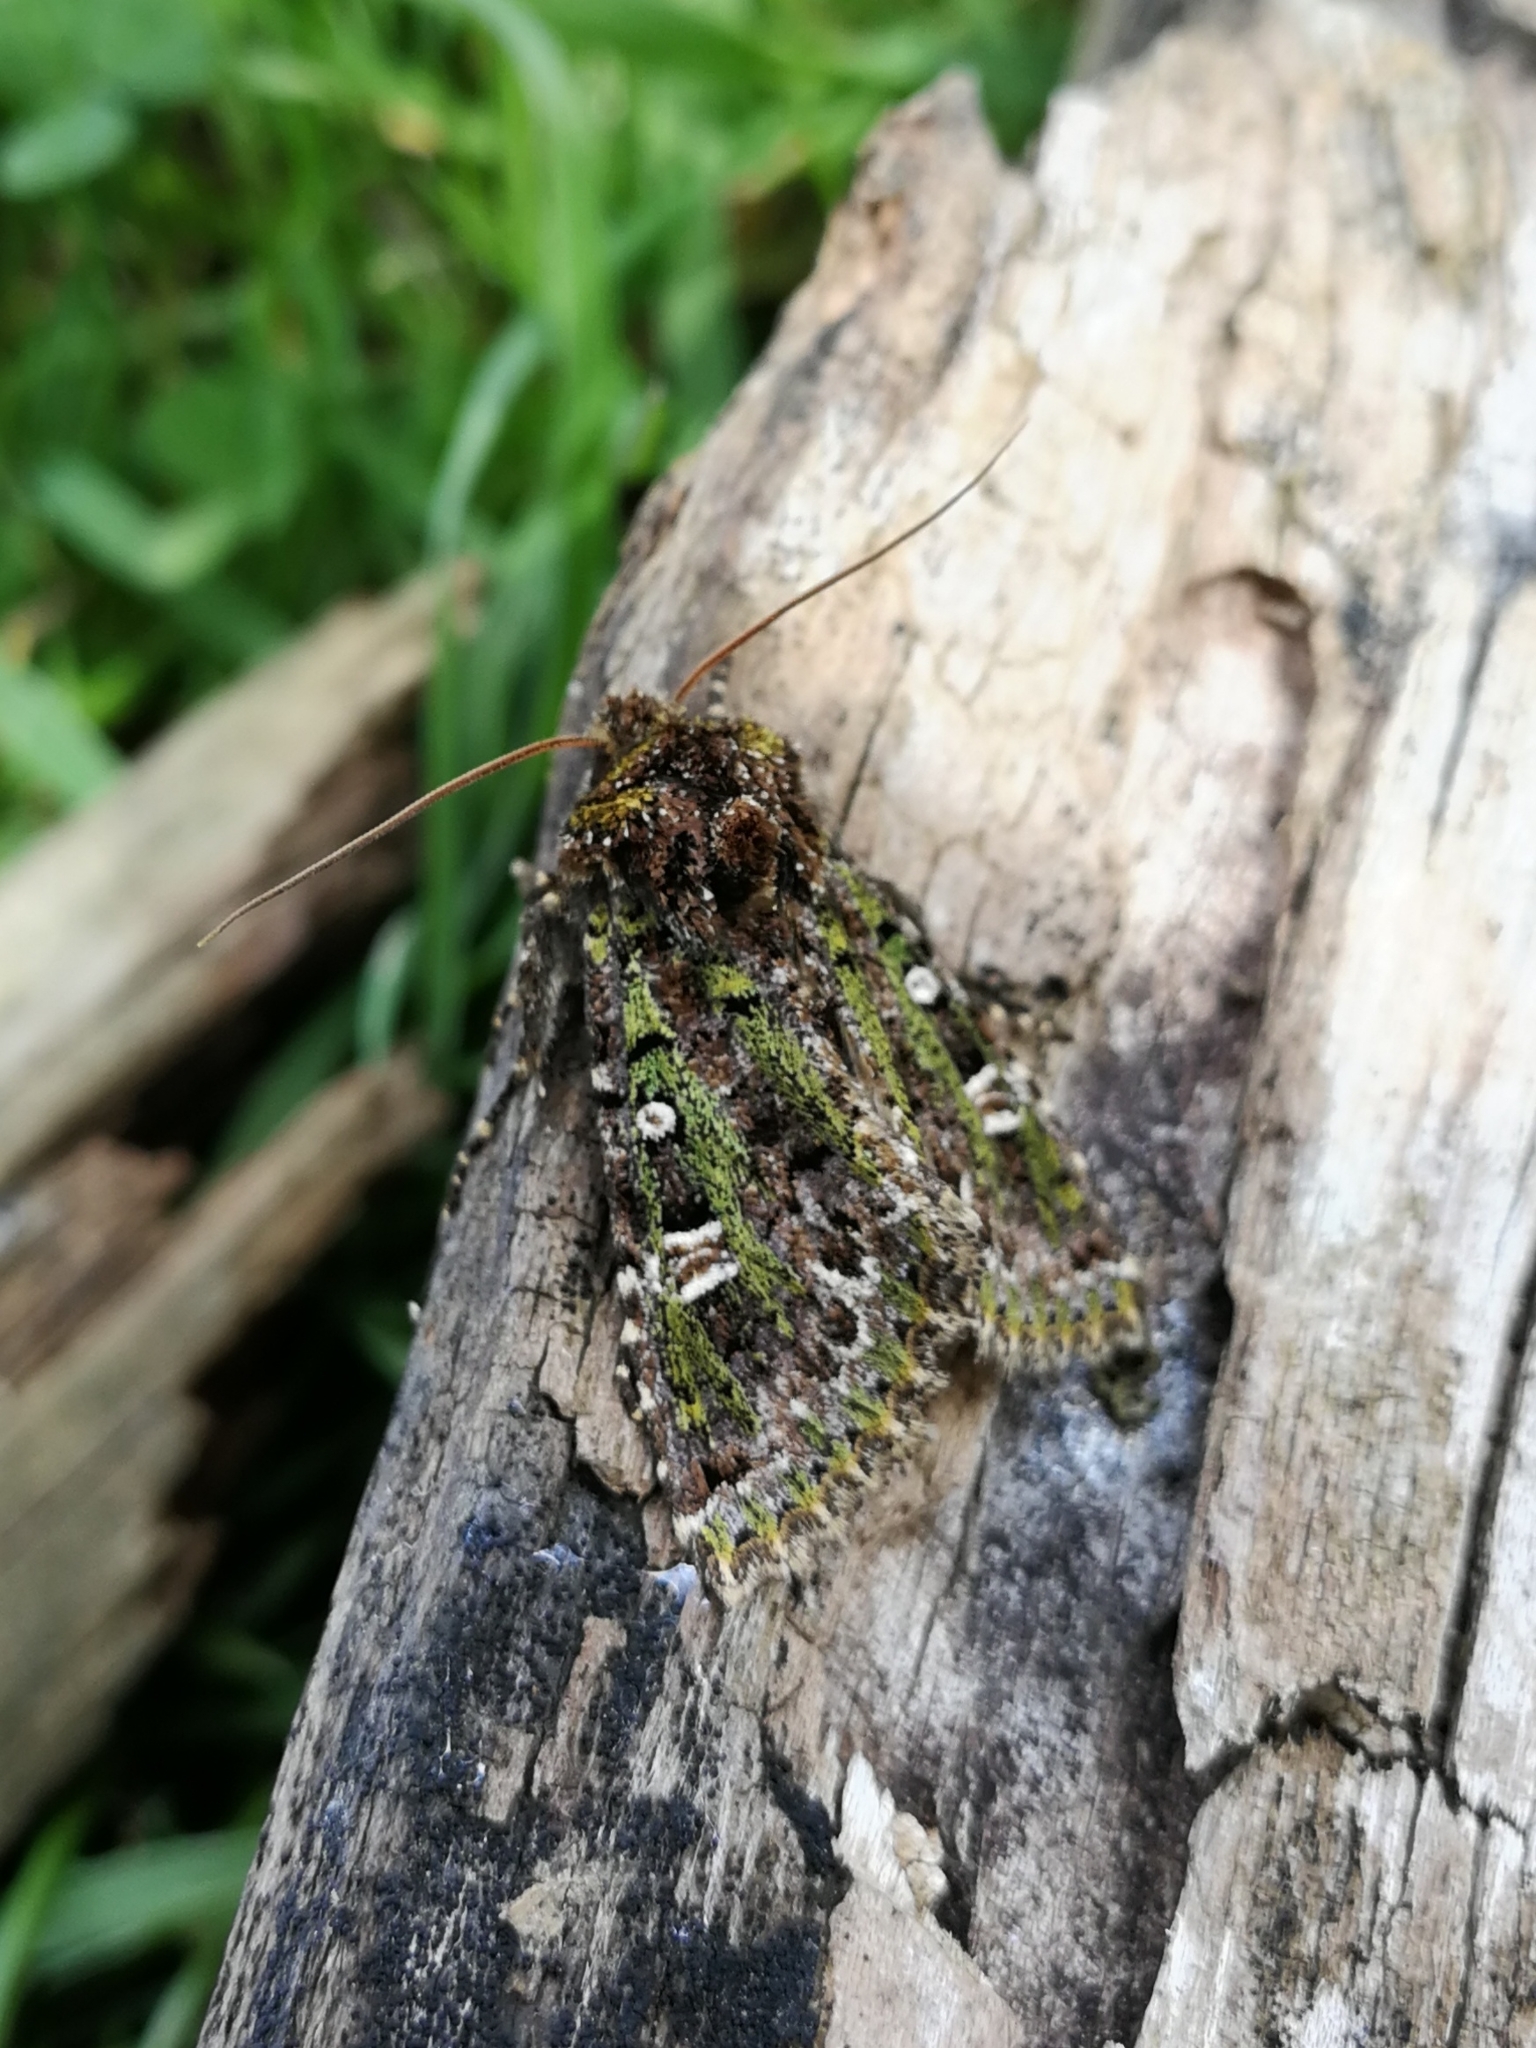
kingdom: Animalia
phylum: Arthropoda
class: Insecta
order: Lepidoptera
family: Noctuidae
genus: Valeria
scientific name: Valeria jaspidea
